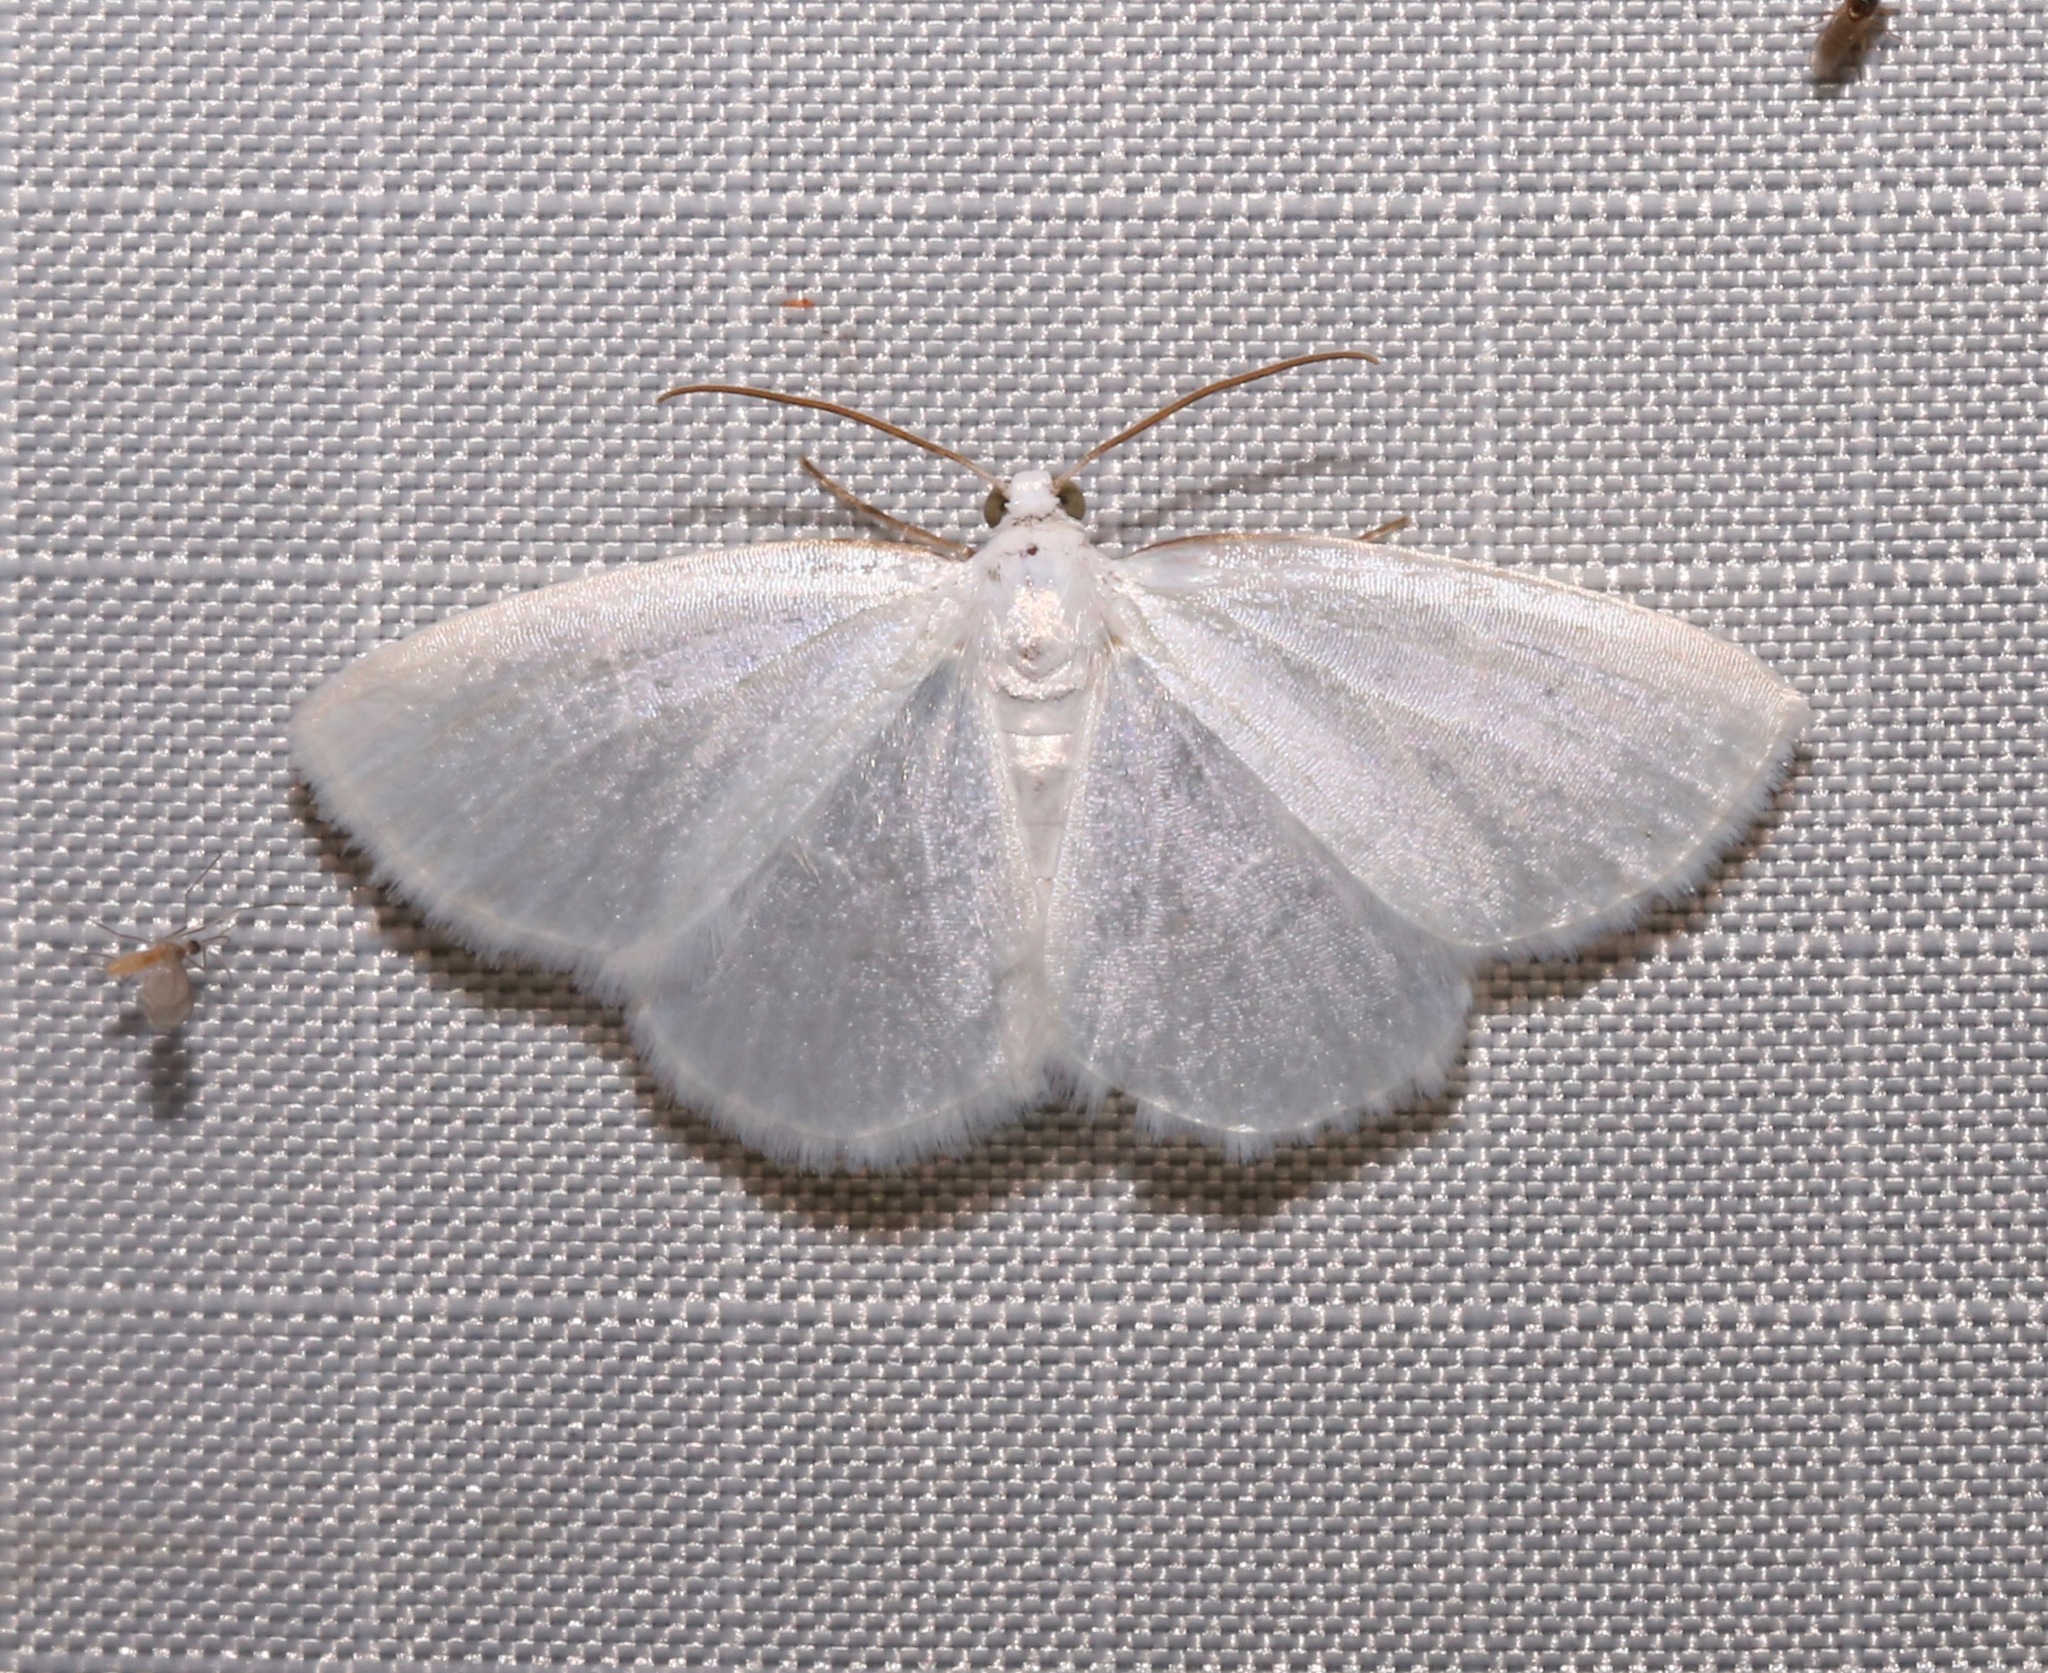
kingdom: Animalia
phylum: Arthropoda
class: Insecta
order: Lepidoptera
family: Geometridae
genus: Lomographa
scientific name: Lomographa vestaliata
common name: White spring moth
